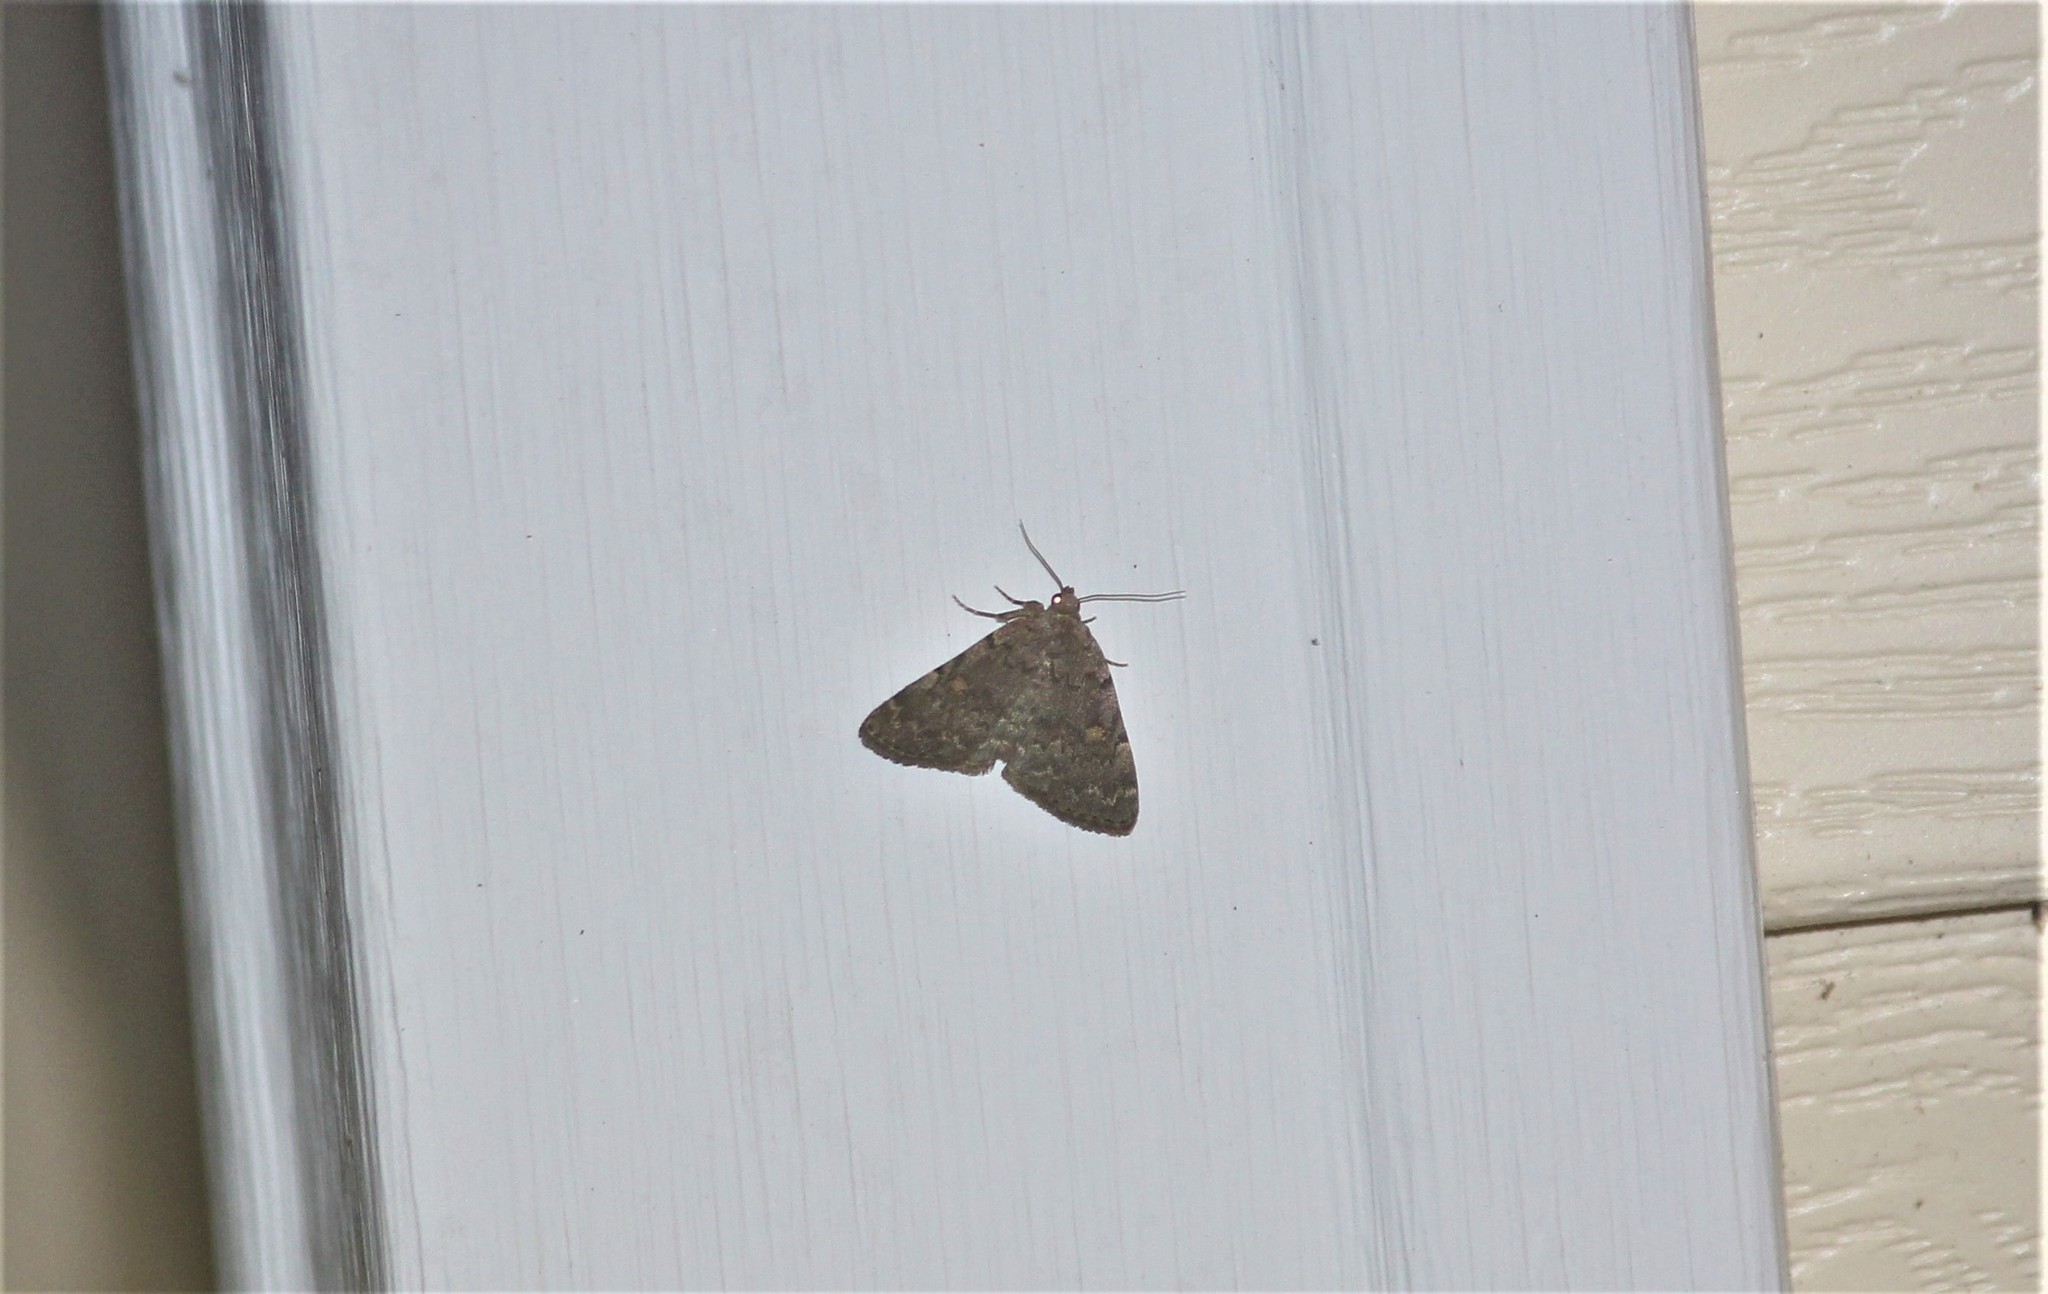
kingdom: Animalia
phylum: Arthropoda
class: Insecta
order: Lepidoptera
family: Erebidae
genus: Idia
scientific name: Idia aemula
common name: Common idia moth
